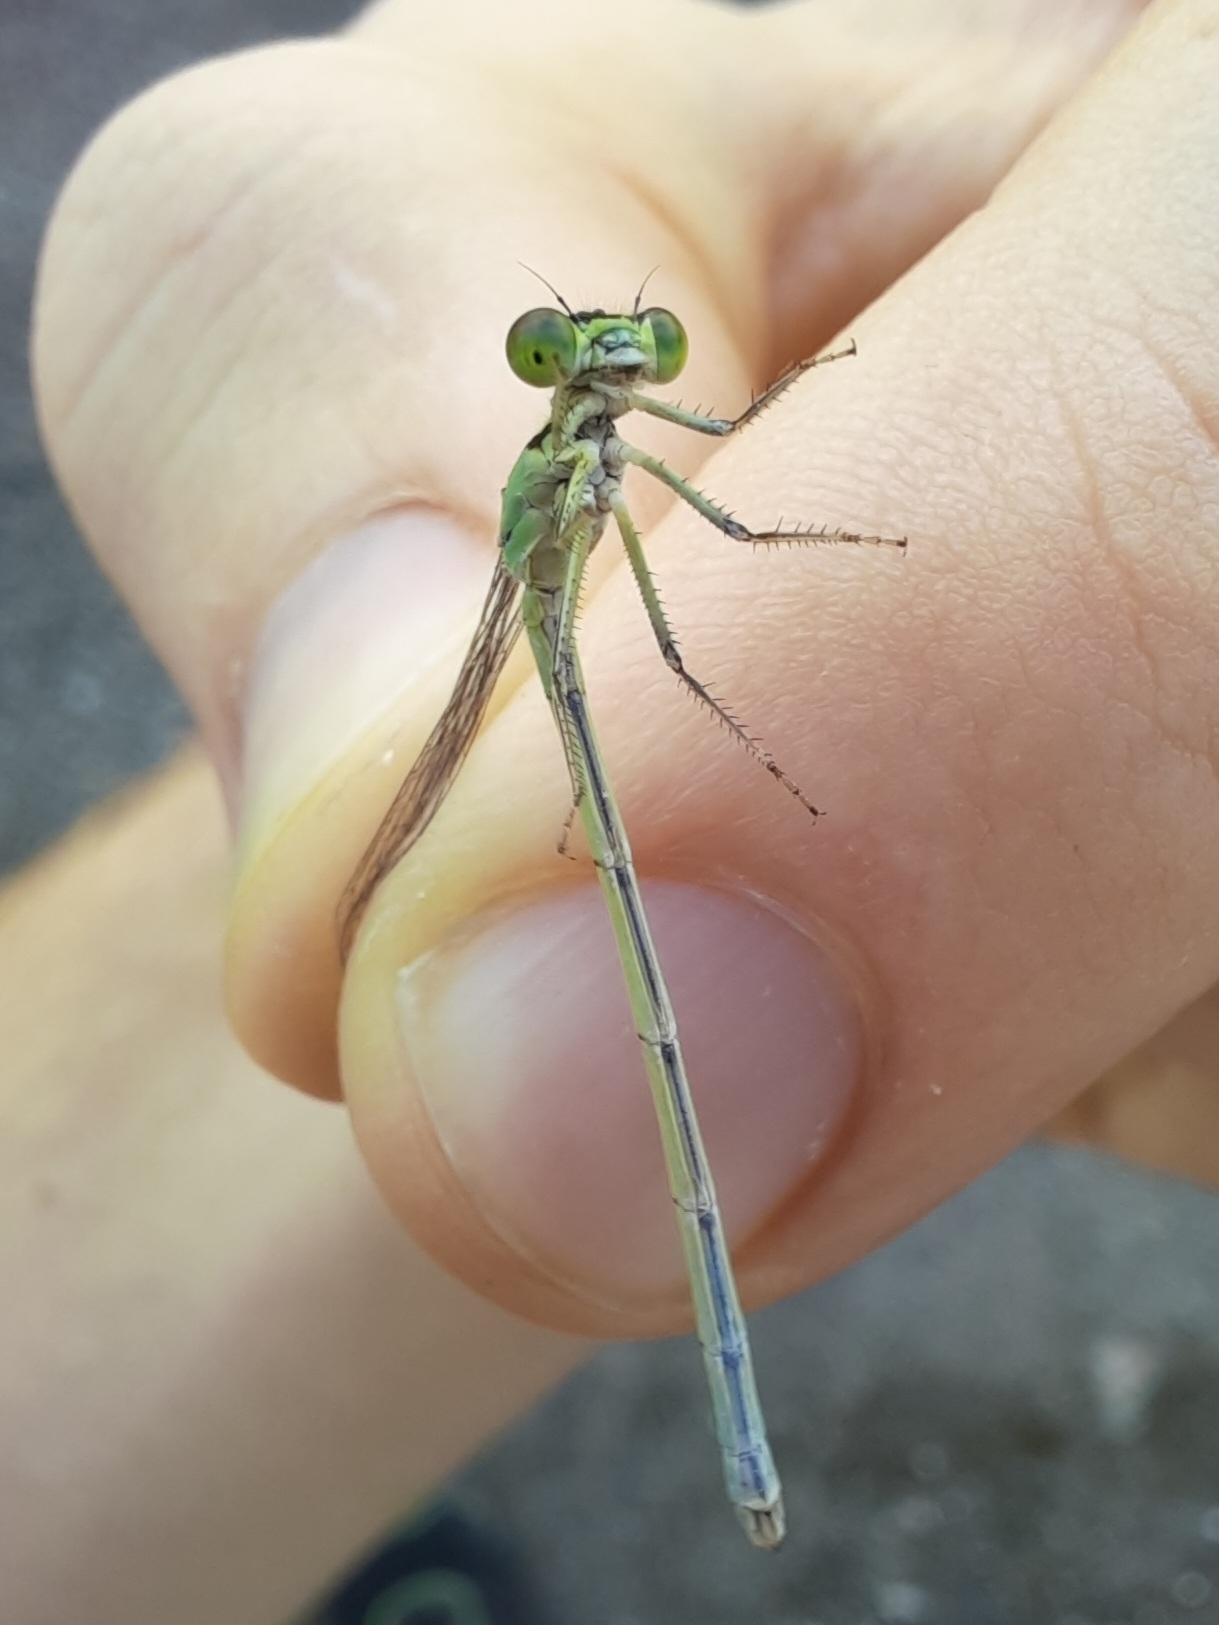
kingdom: Animalia
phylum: Arthropoda
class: Insecta
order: Odonata
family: Coenagrionidae
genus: Ischnura
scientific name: Ischnura elegans
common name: Blue-tailed damselfly
